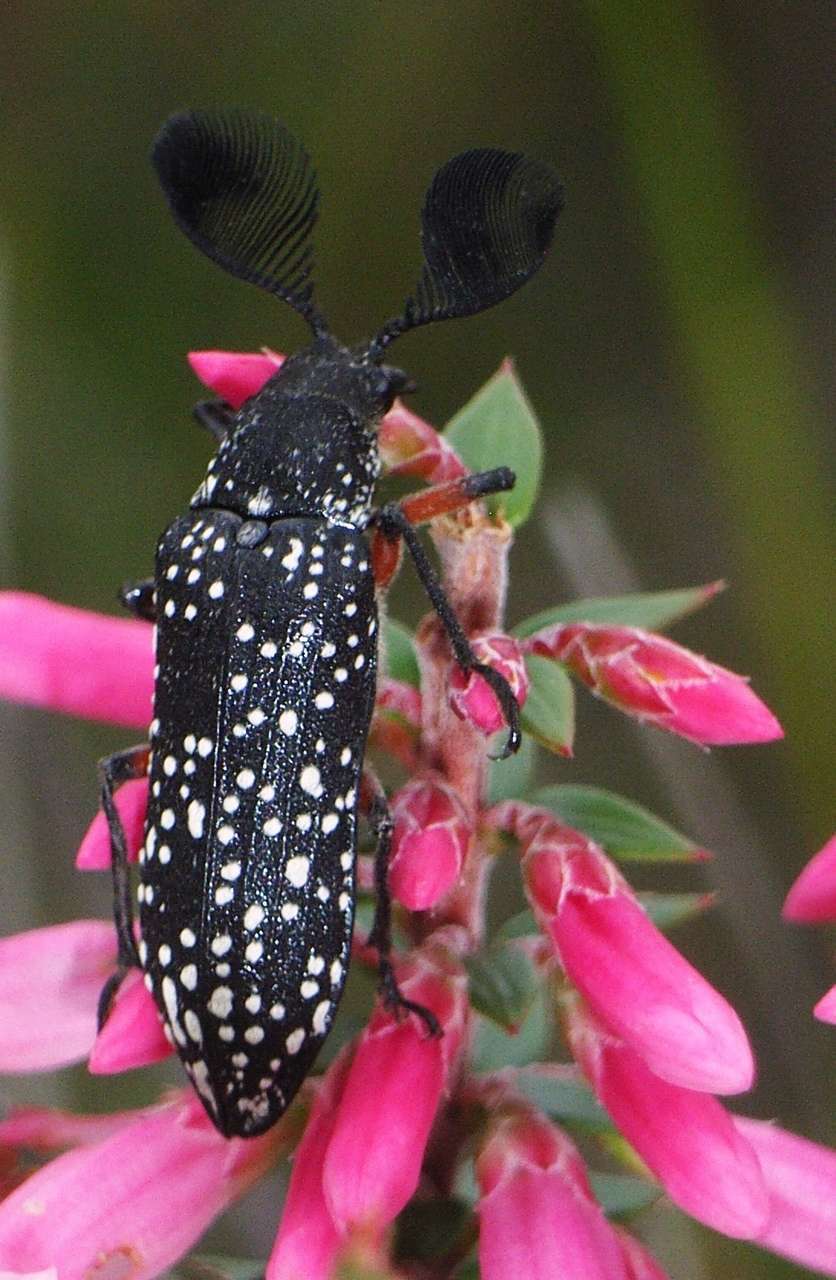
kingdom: Animalia
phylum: Arthropoda
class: Insecta
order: Coleoptera
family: Rhipiceridae
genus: Rhipicera
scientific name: Rhipicera femorata
